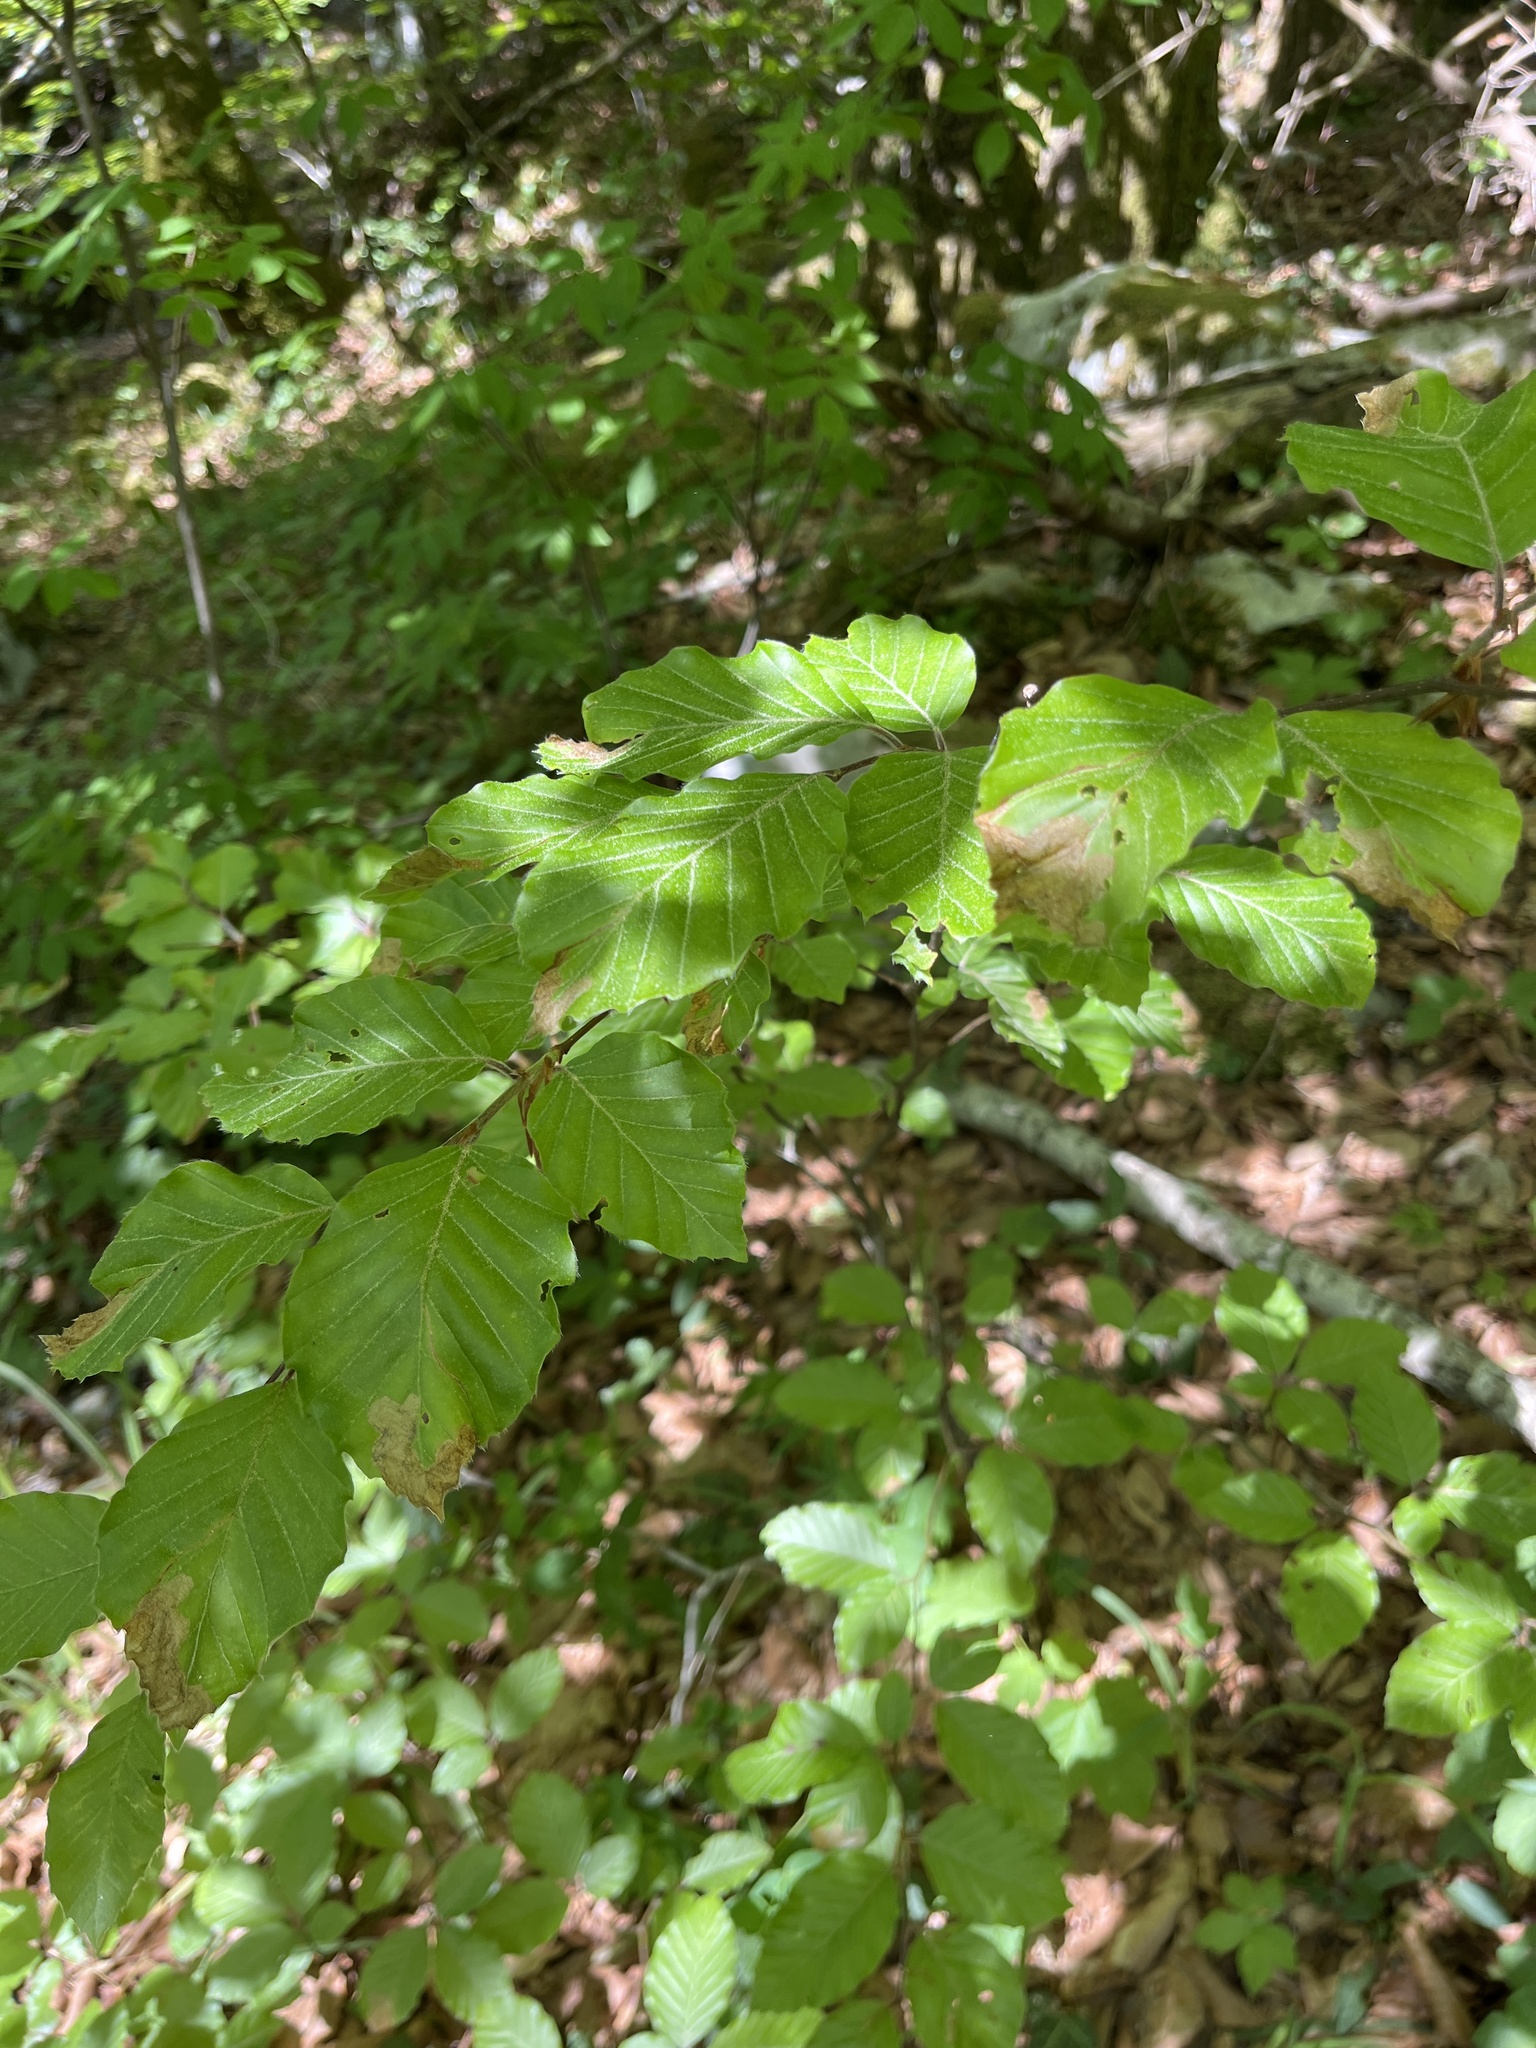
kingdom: Plantae
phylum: Tracheophyta
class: Magnoliopsida
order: Fagales
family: Fagaceae
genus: Fagus
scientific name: Fagus sylvatica
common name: Beech
